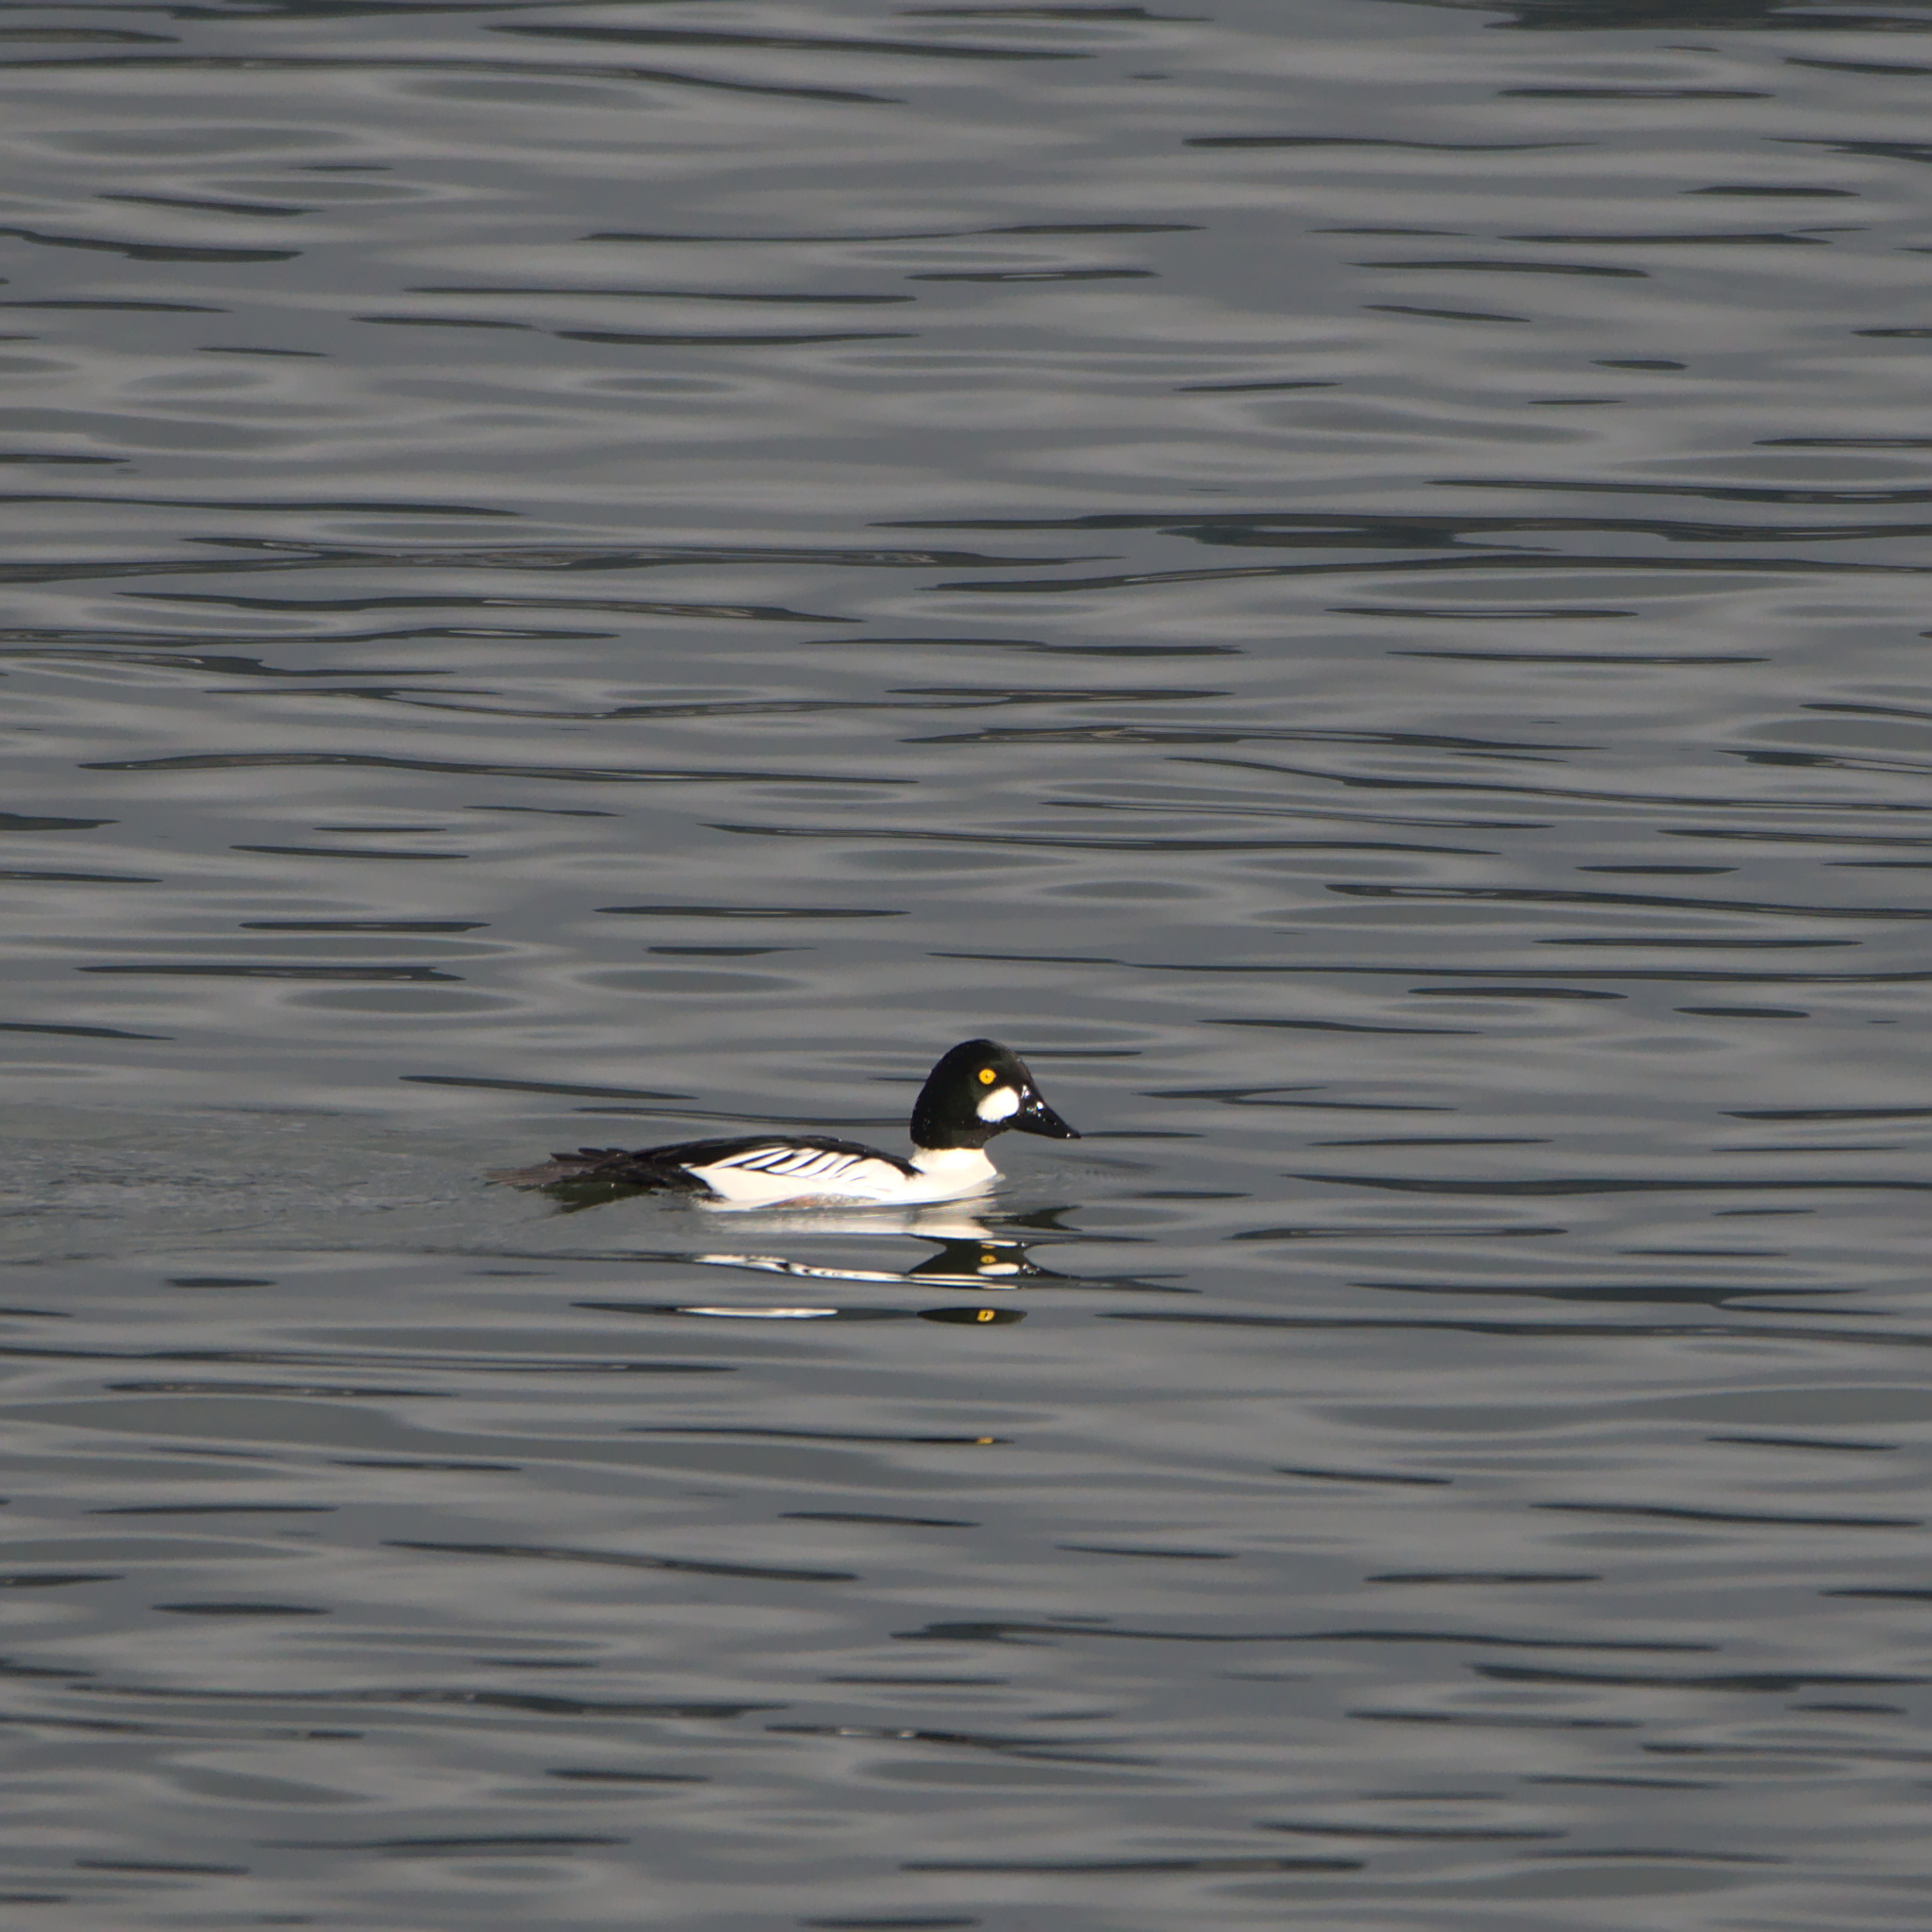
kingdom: Animalia
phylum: Chordata
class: Aves
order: Anseriformes
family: Anatidae
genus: Bucephala
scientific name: Bucephala clangula
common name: Common goldeneye
